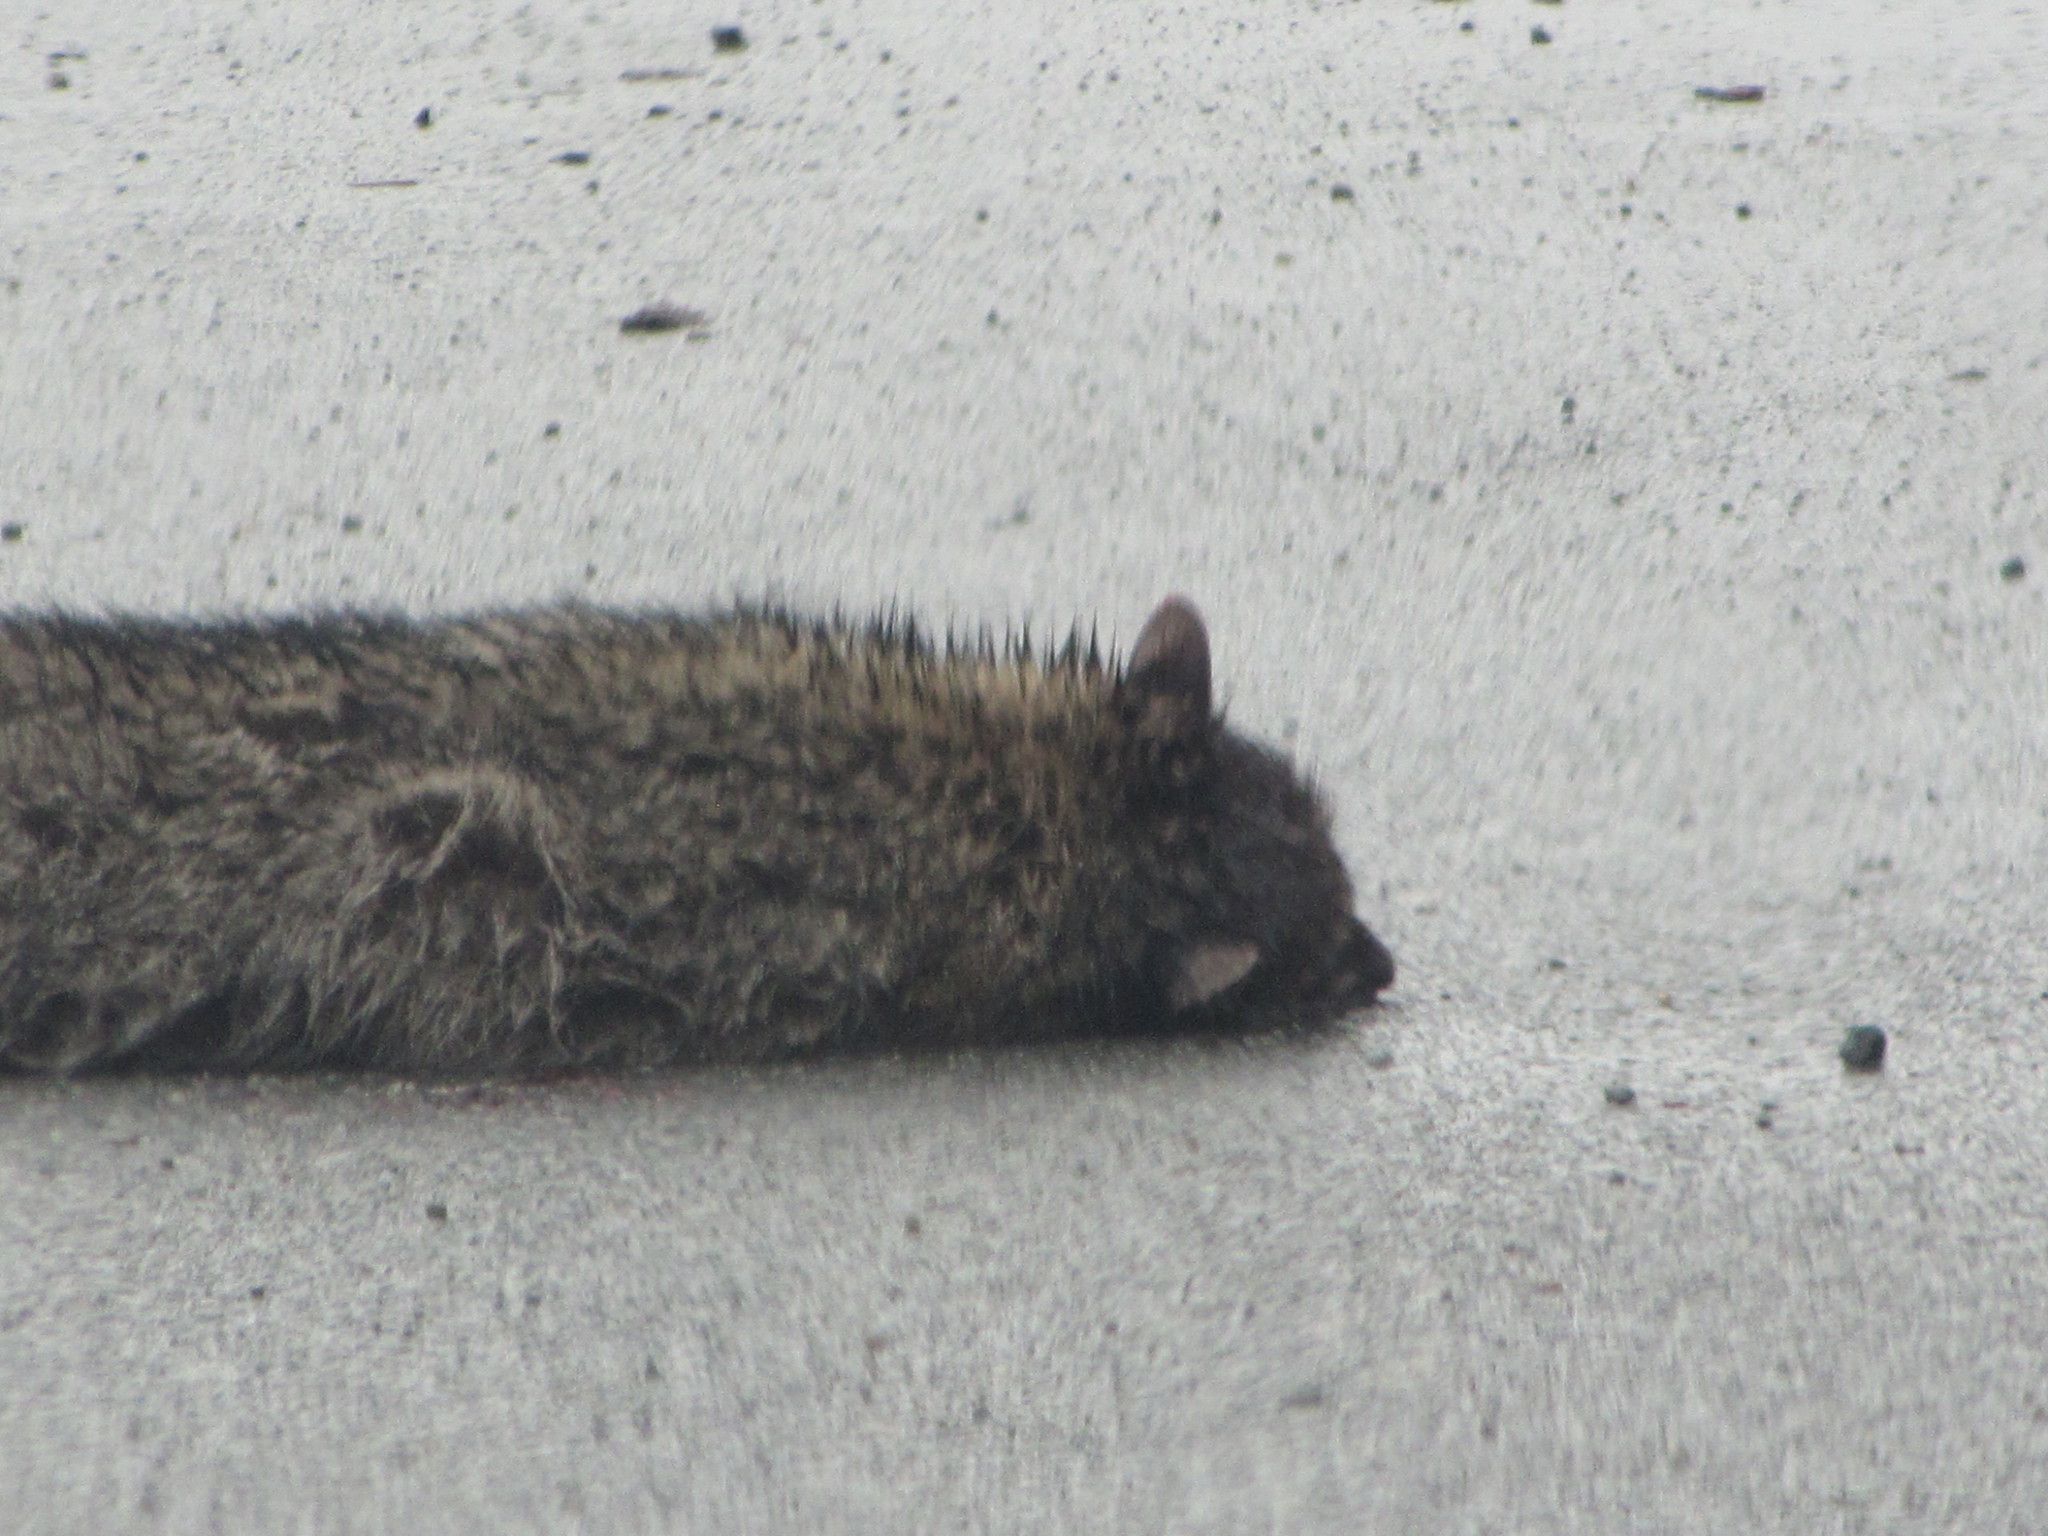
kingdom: Animalia
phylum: Chordata
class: Mammalia
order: Carnivora
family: Procyonidae
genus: Procyon
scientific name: Procyon lotor
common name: Raccoon
